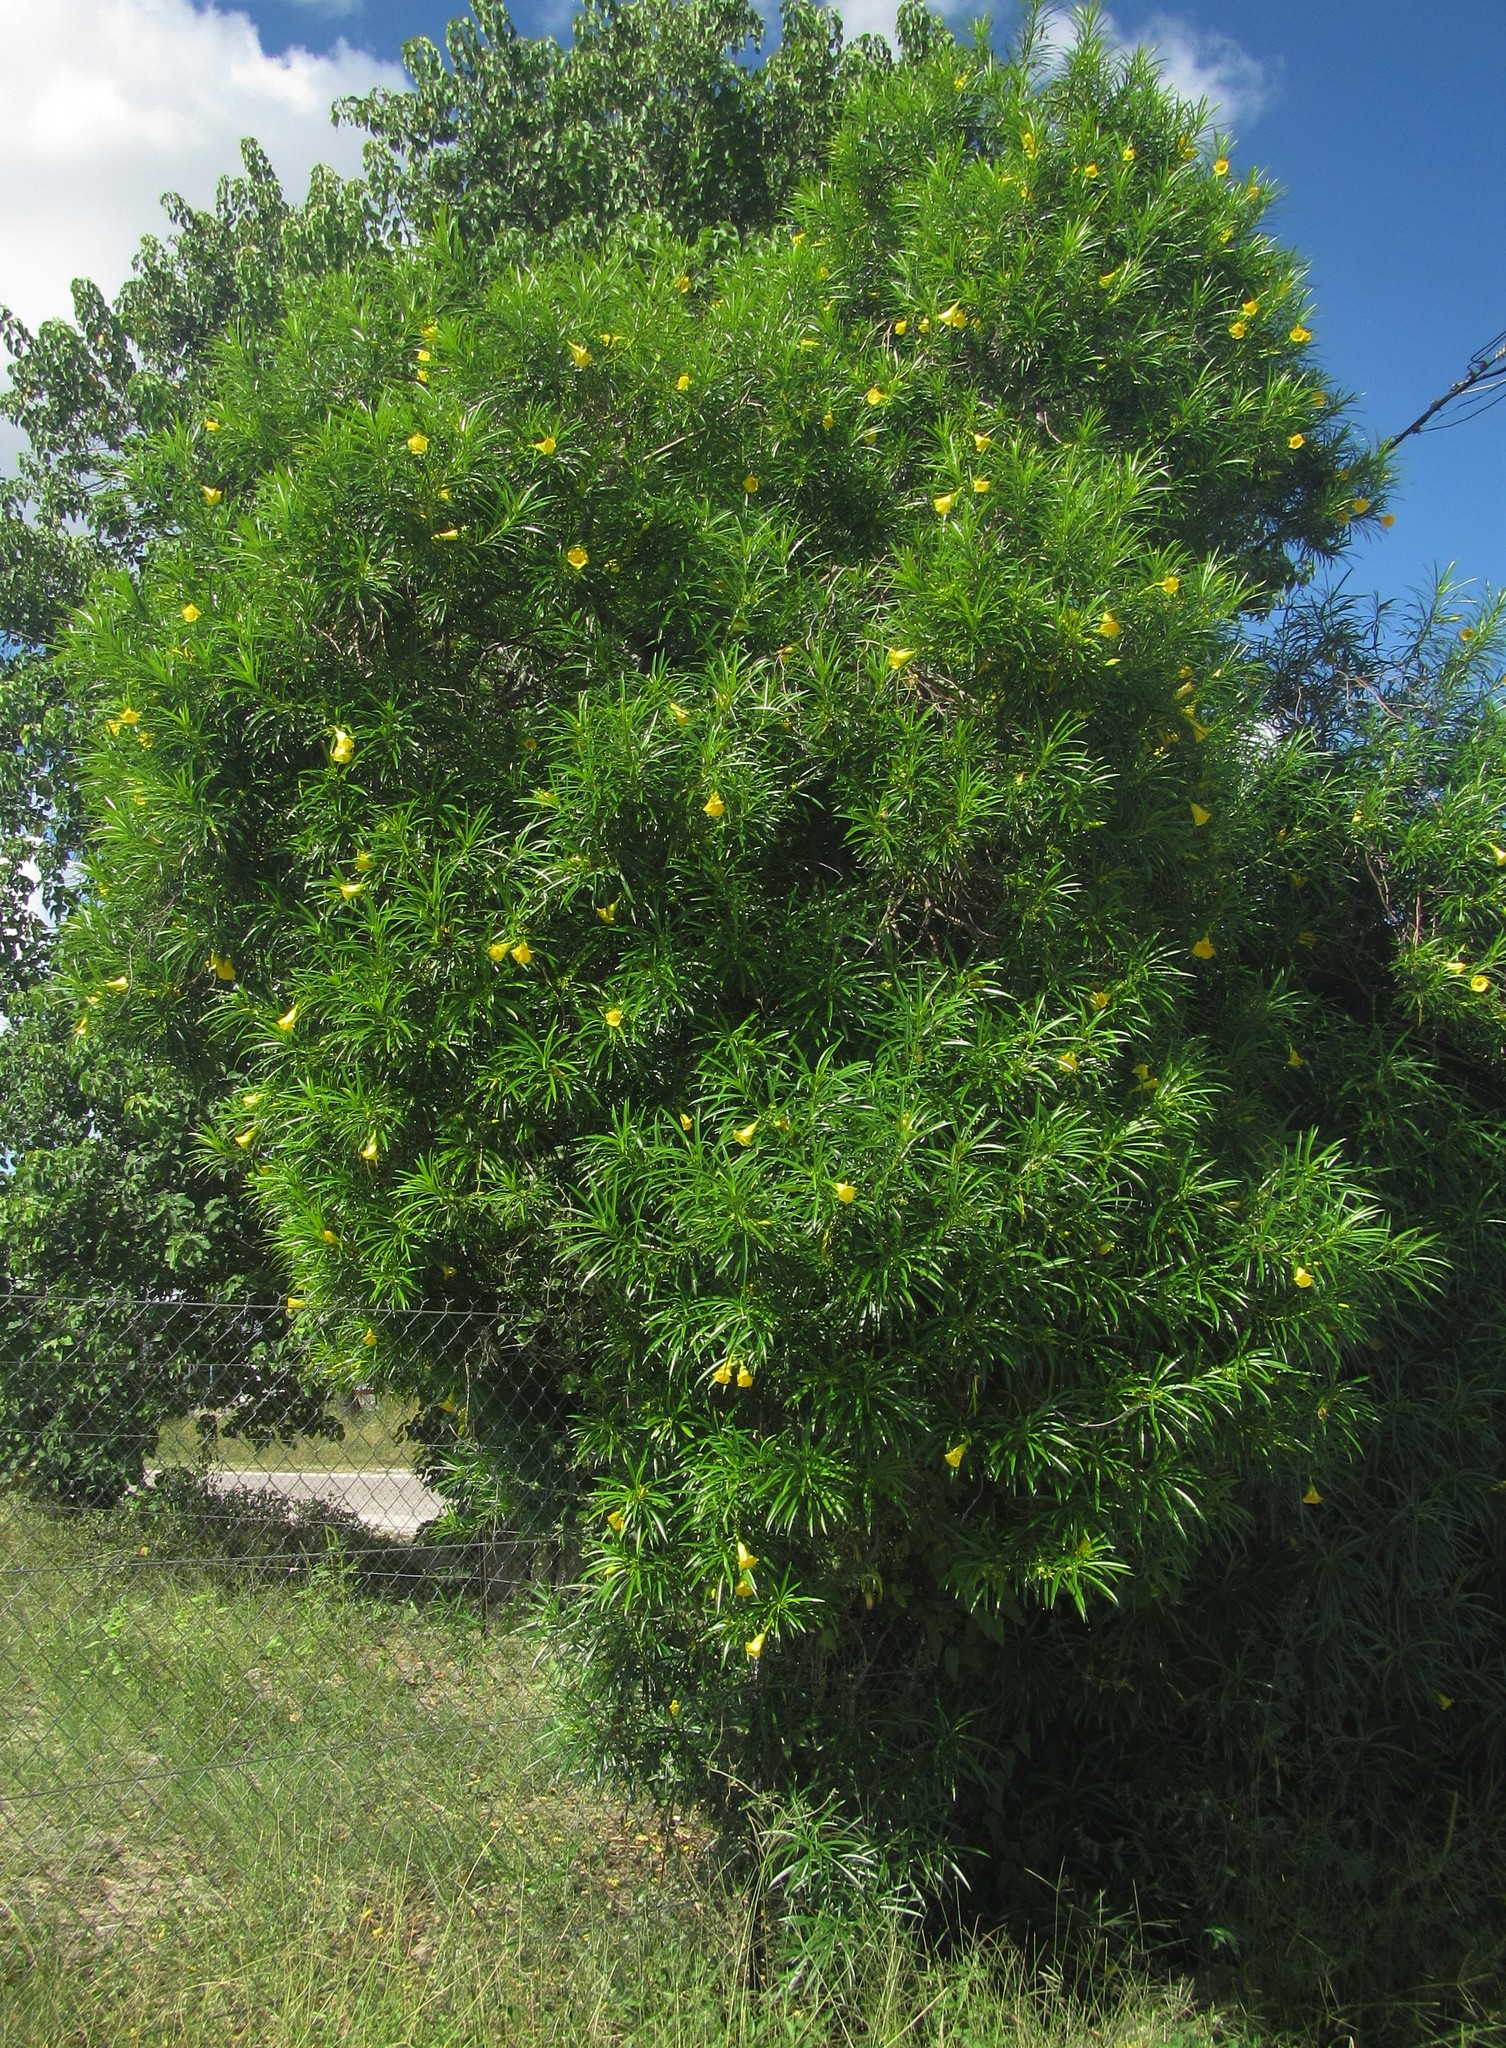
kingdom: Plantae
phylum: Tracheophyta
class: Magnoliopsida
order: Gentianales
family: Apocynaceae
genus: Cascabela
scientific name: Cascabela thevetia
